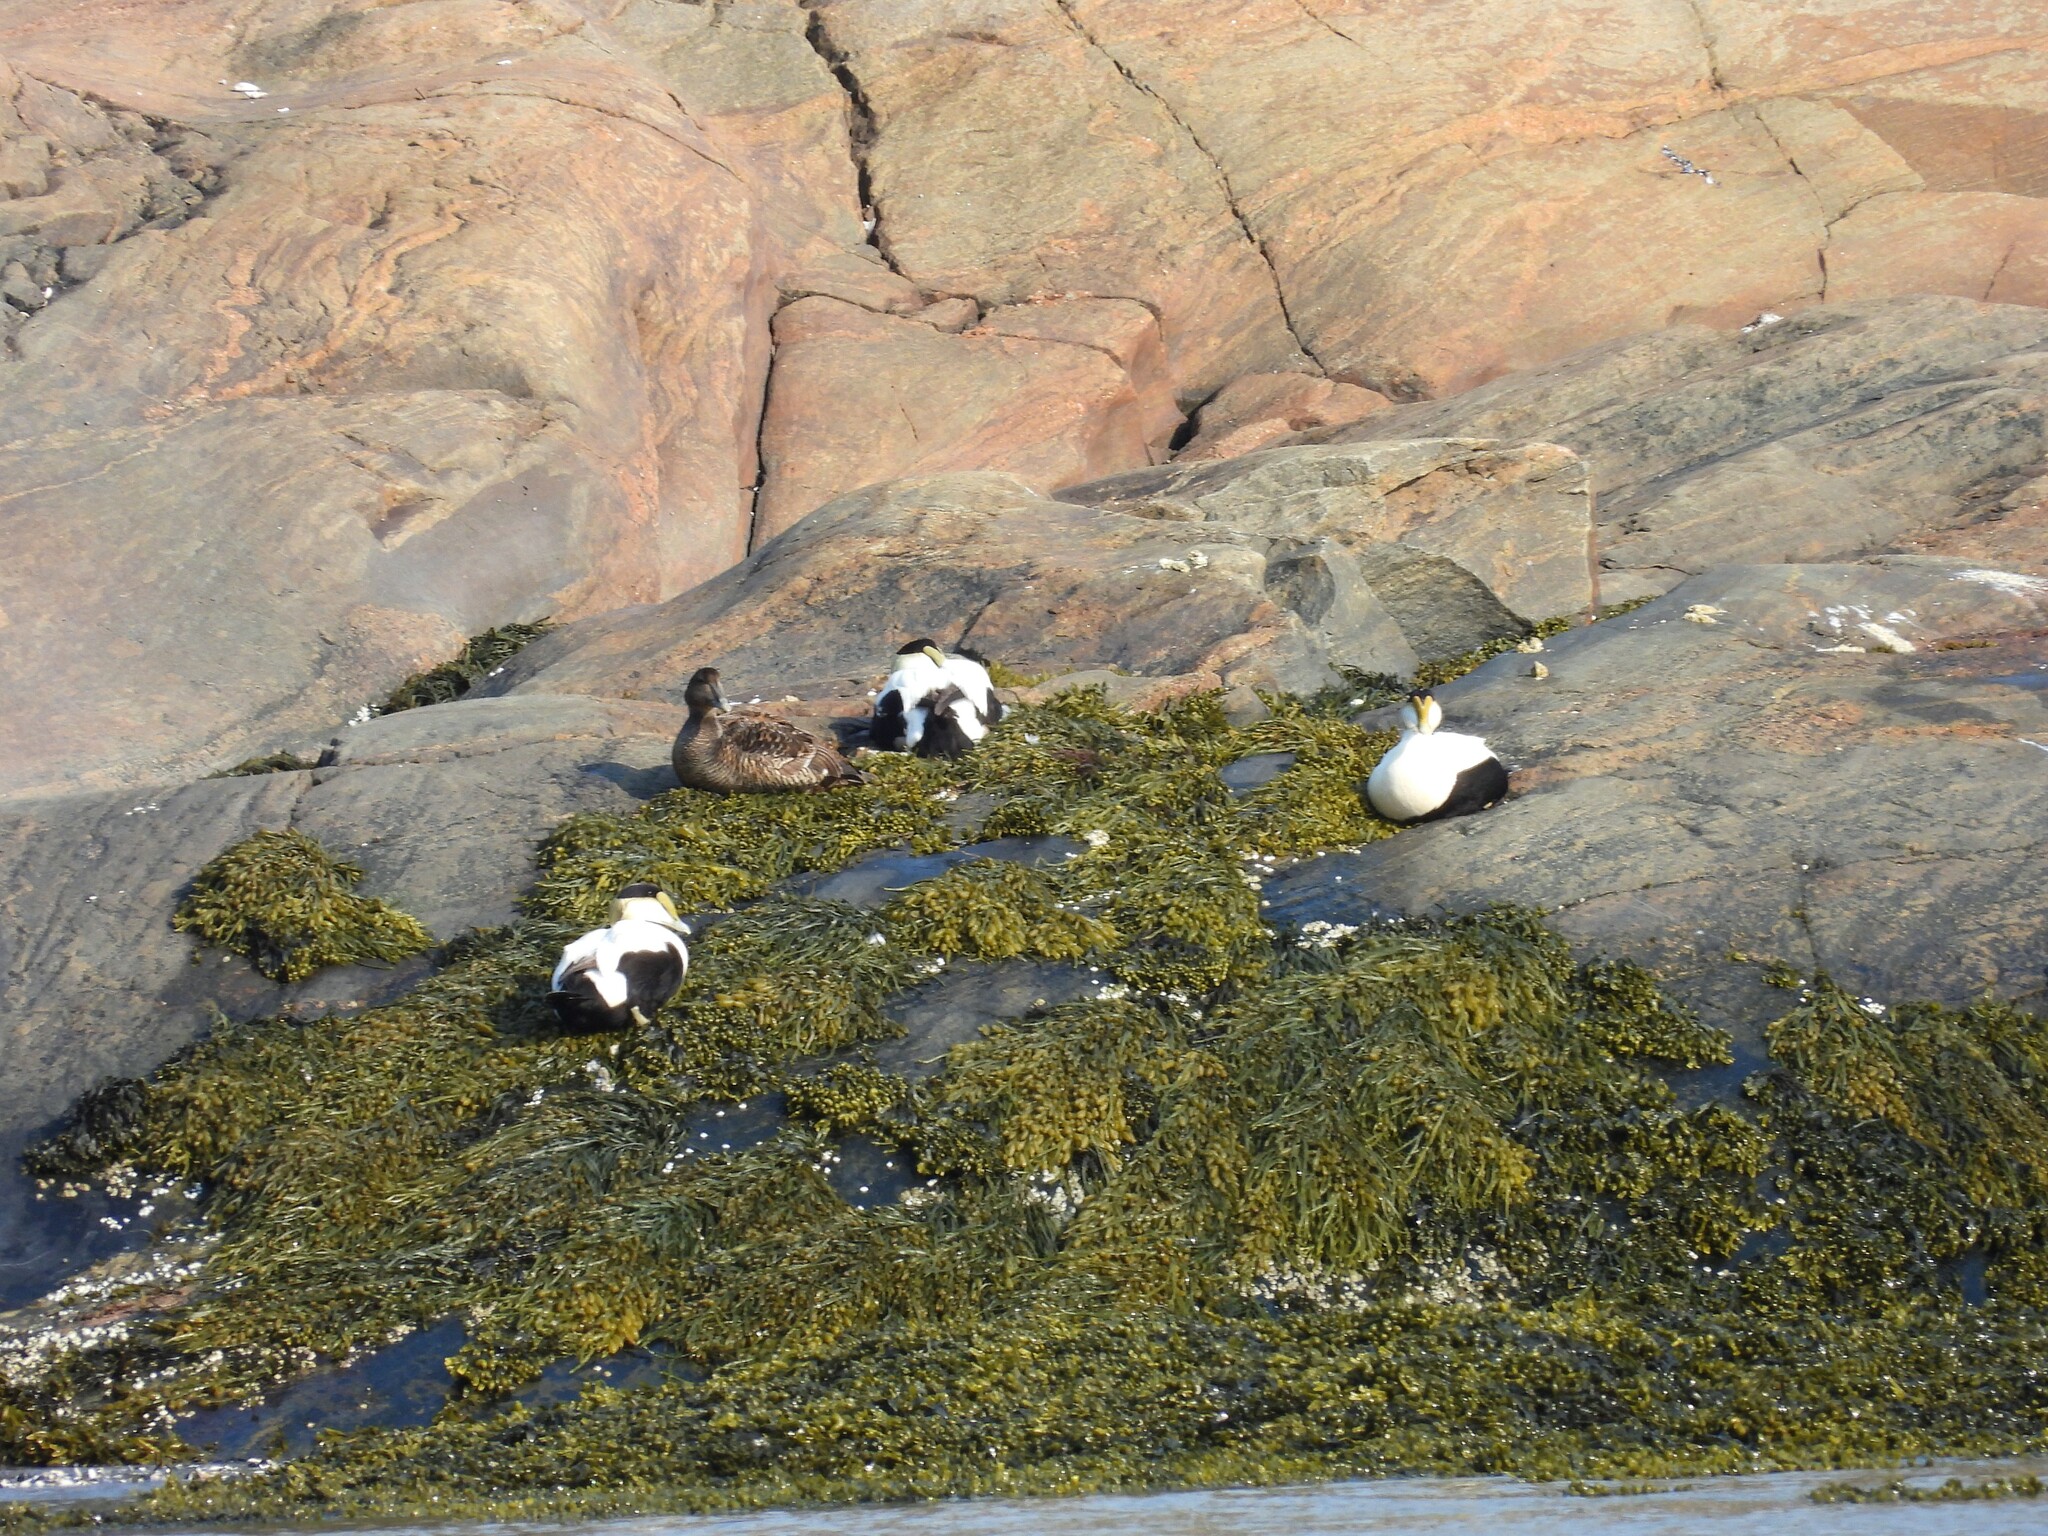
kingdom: Animalia
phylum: Chordata
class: Aves
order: Anseriformes
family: Anatidae
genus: Somateria
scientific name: Somateria mollissima
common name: Common eider
